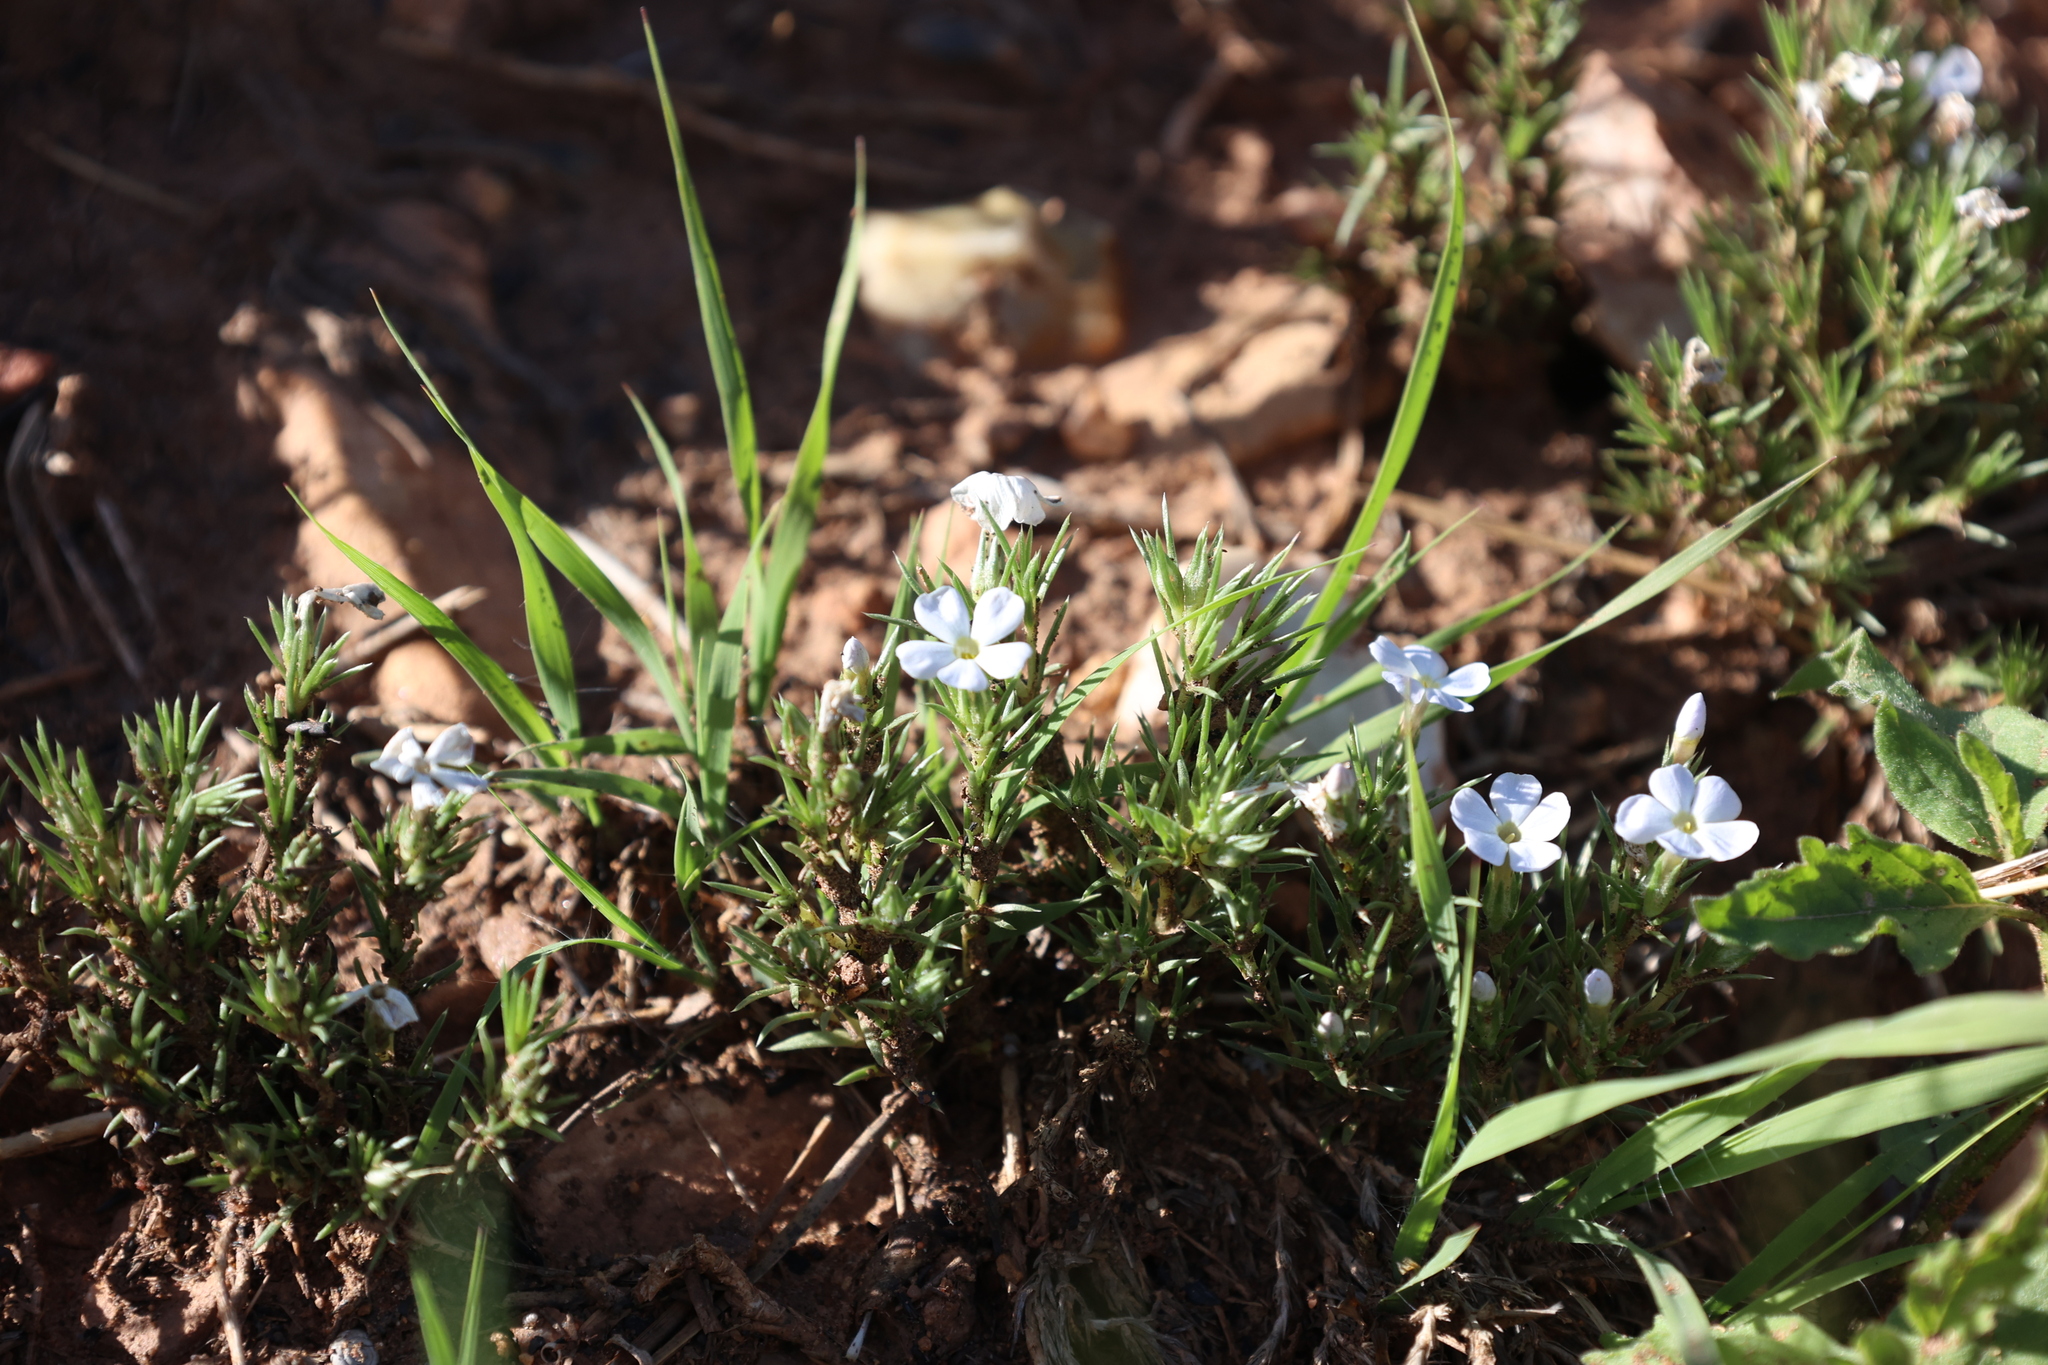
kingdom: Plantae
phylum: Tracheophyta
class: Magnoliopsida
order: Ericales
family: Polemoniaceae
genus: Phlox
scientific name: Phlox andicola
